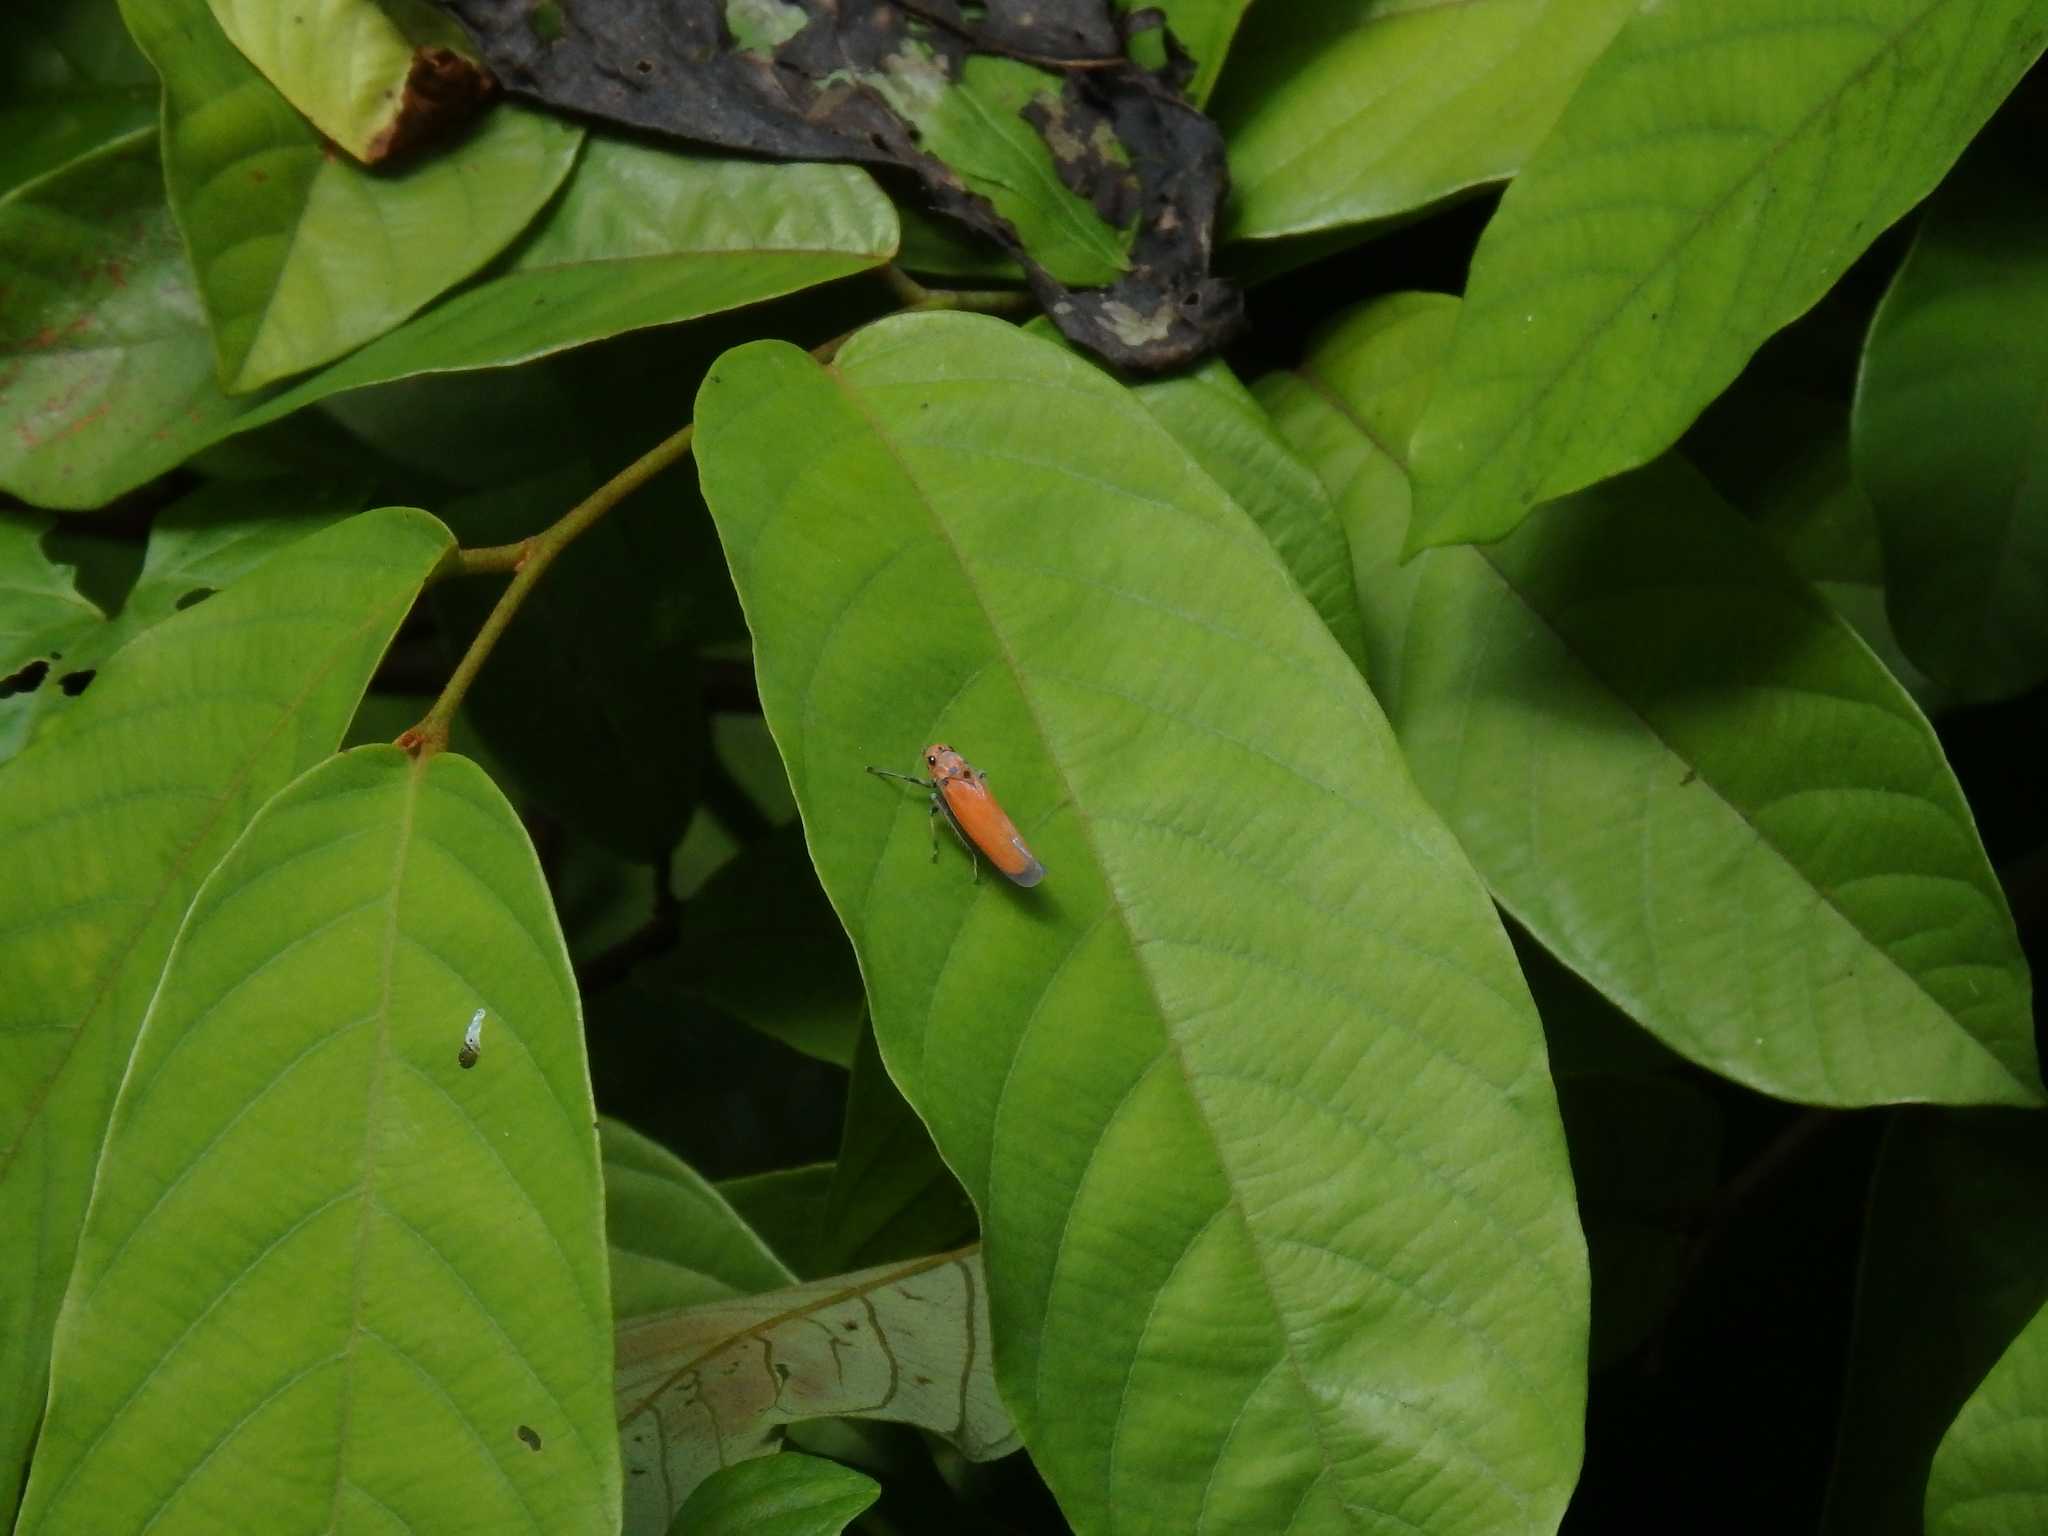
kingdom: Animalia
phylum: Arthropoda
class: Insecta
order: Hemiptera
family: Cicadellidae
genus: Bothrogonia
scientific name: Bothrogonia addita
